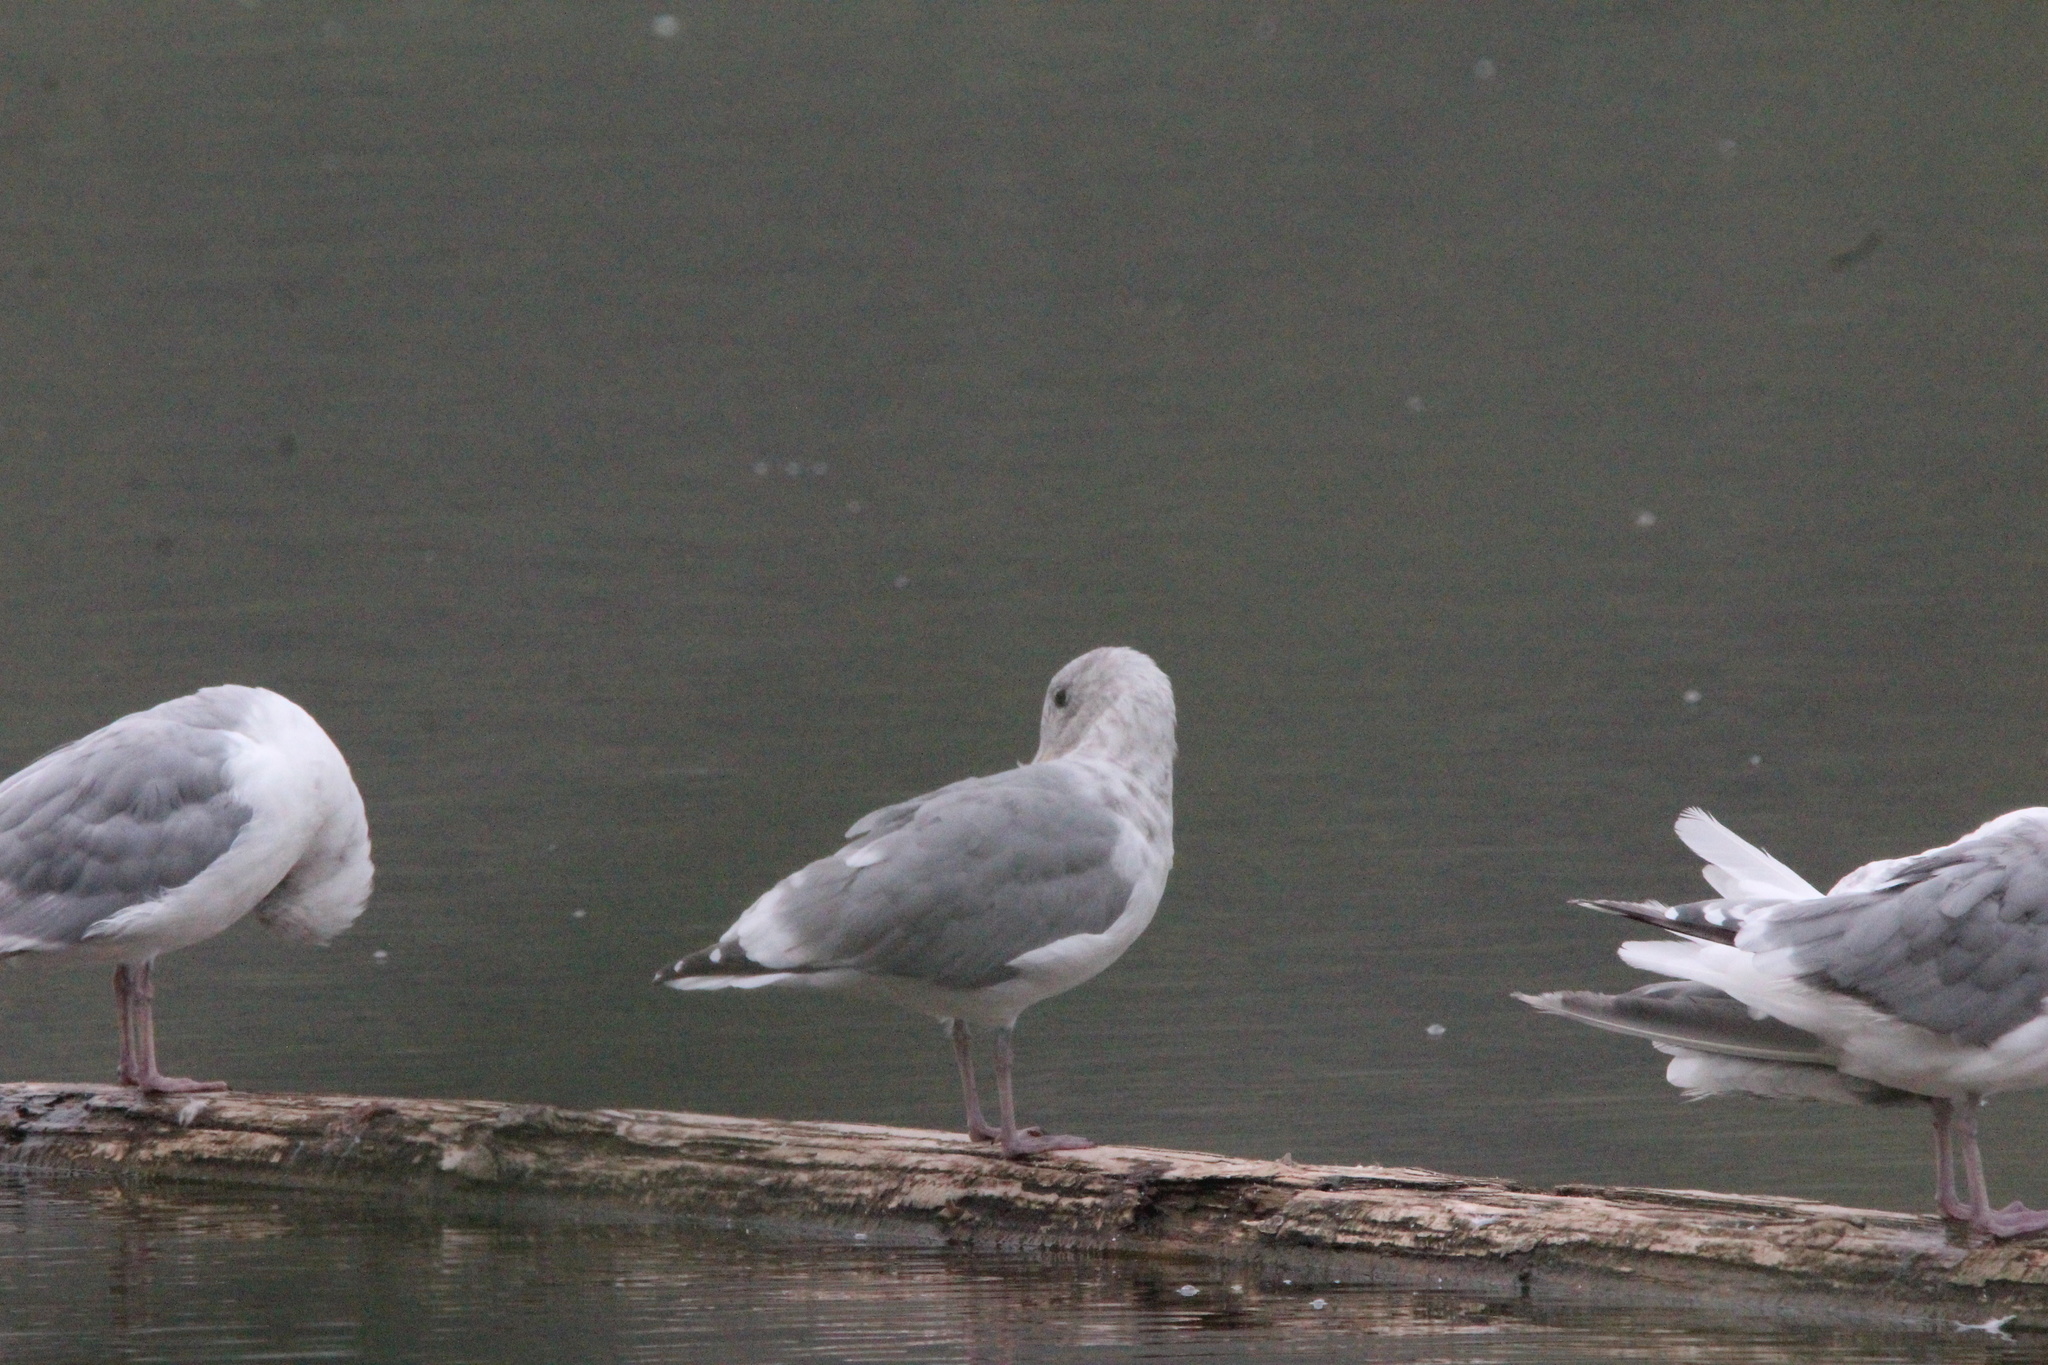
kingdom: Animalia
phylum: Chordata
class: Aves
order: Charadriiformes
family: Laridae
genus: Larus
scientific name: Larus
